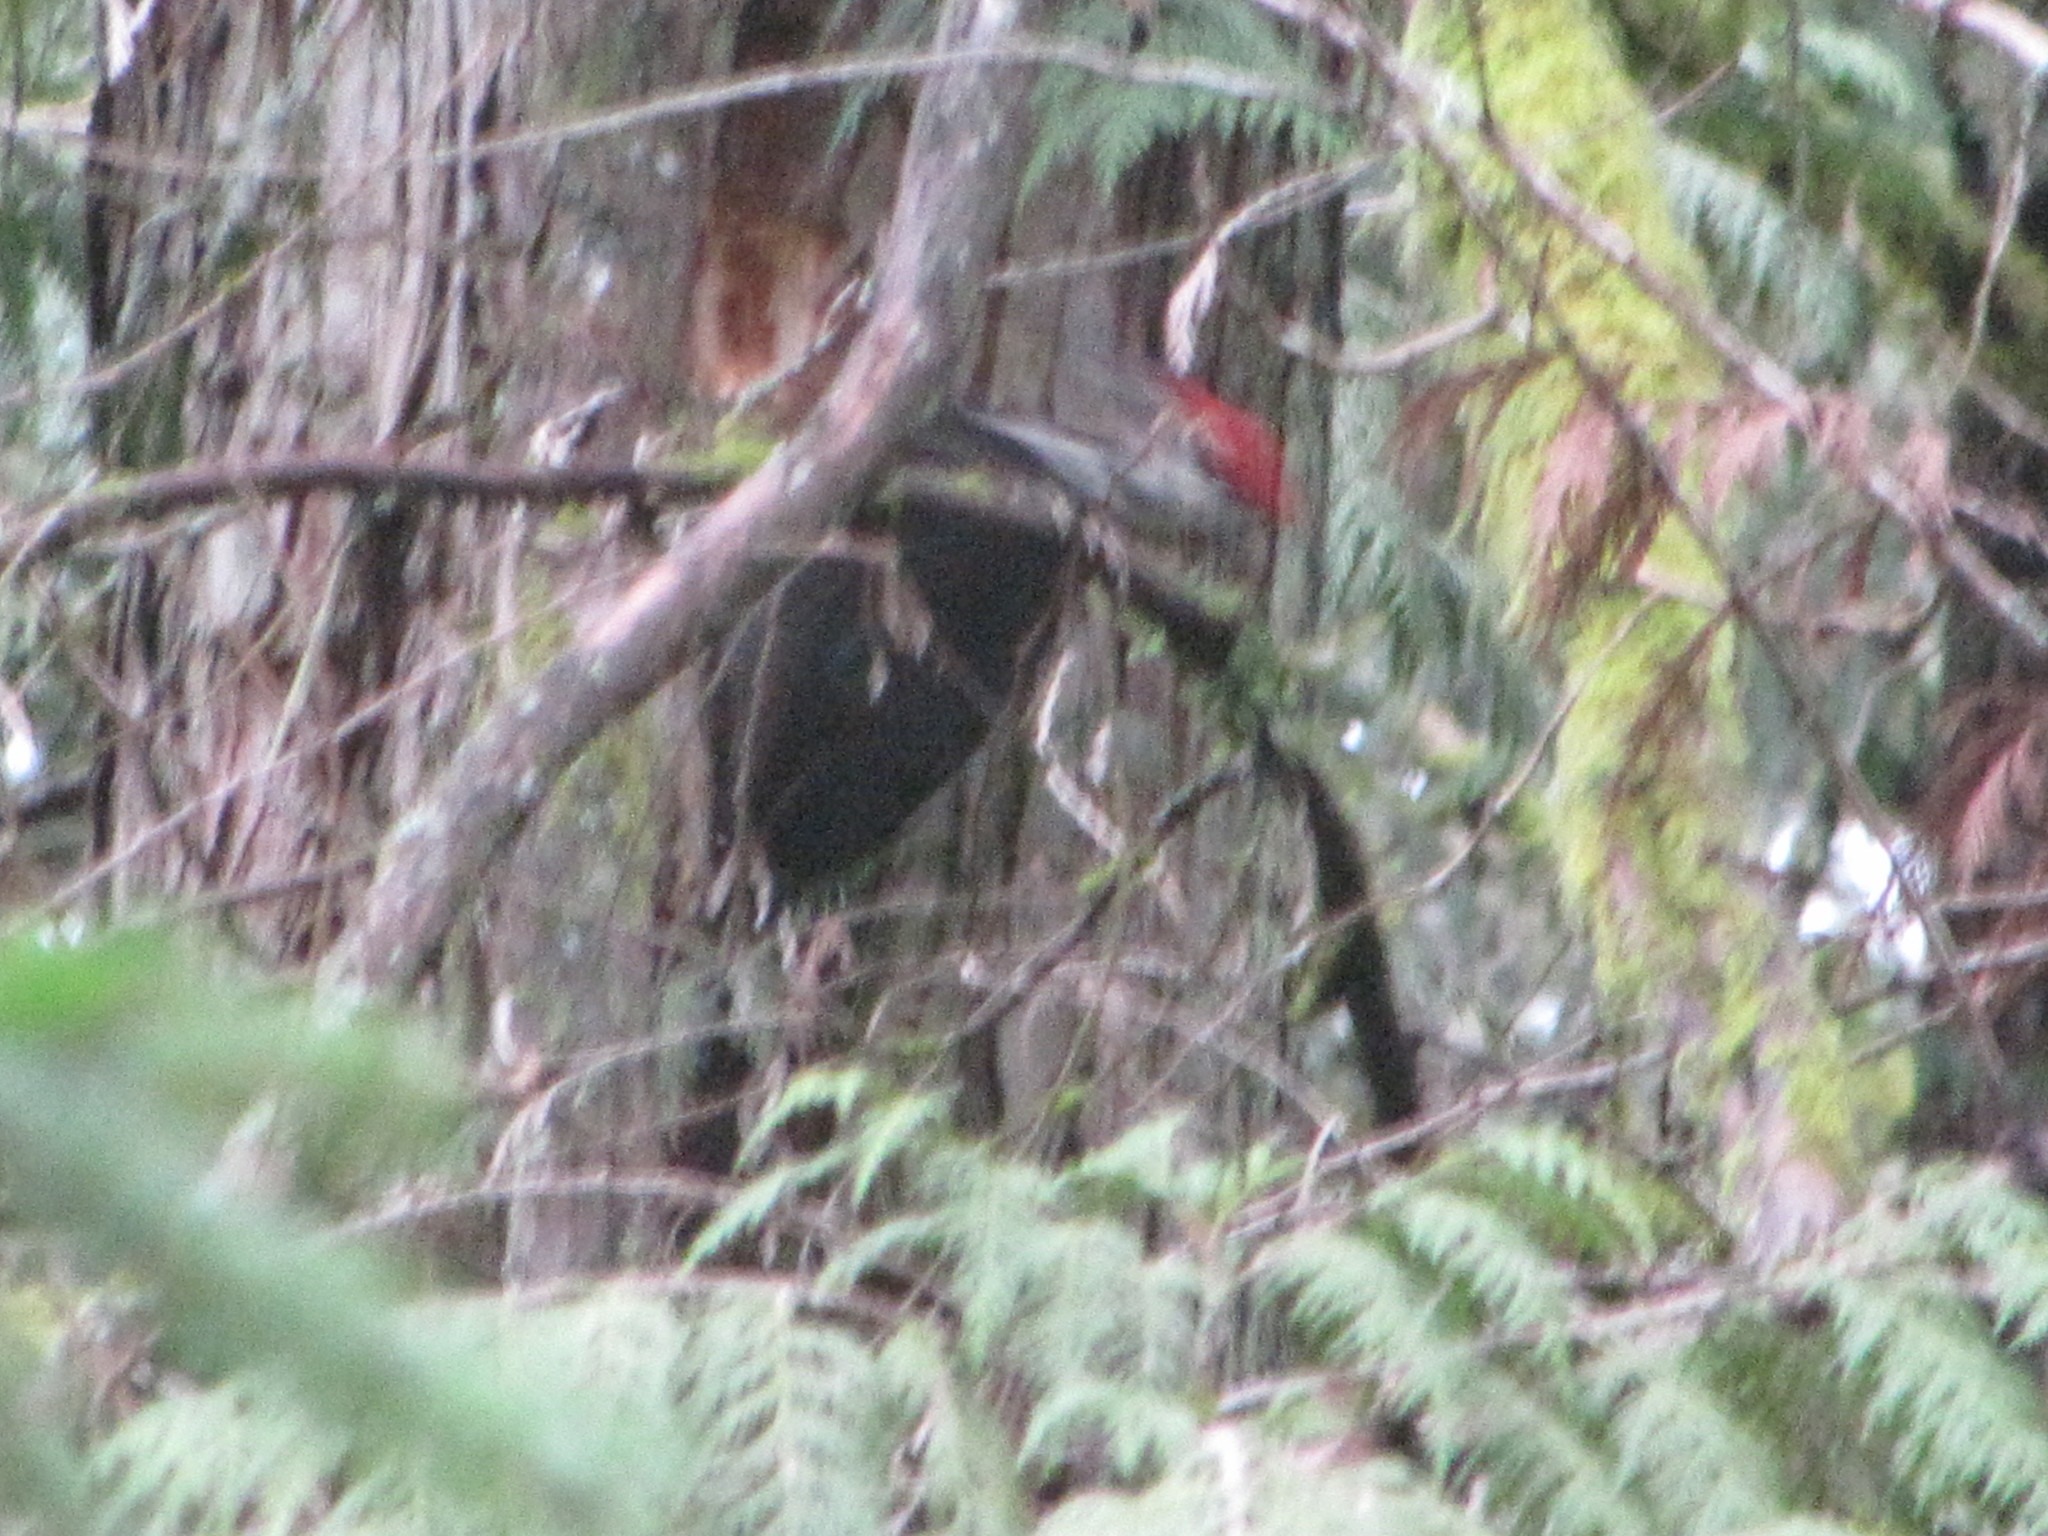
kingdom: Animalia
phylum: Chordata
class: Aves
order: Piciformes
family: Picidae
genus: Dryocopus
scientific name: Dryocopus pileatus
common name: Pileated woodpecker
